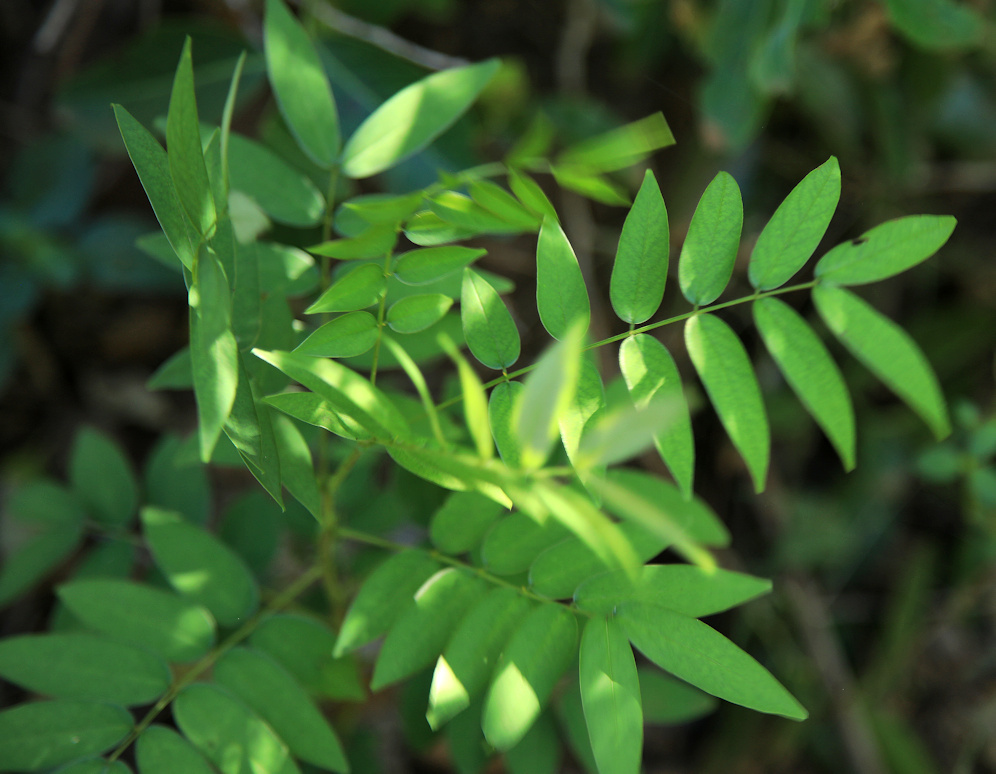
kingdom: Plantae
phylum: Tracheophyta
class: Magnoliopsida
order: Fabales
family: Fabaceae
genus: Senna
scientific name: Senna septemtrionalis
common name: Arsenic bush
